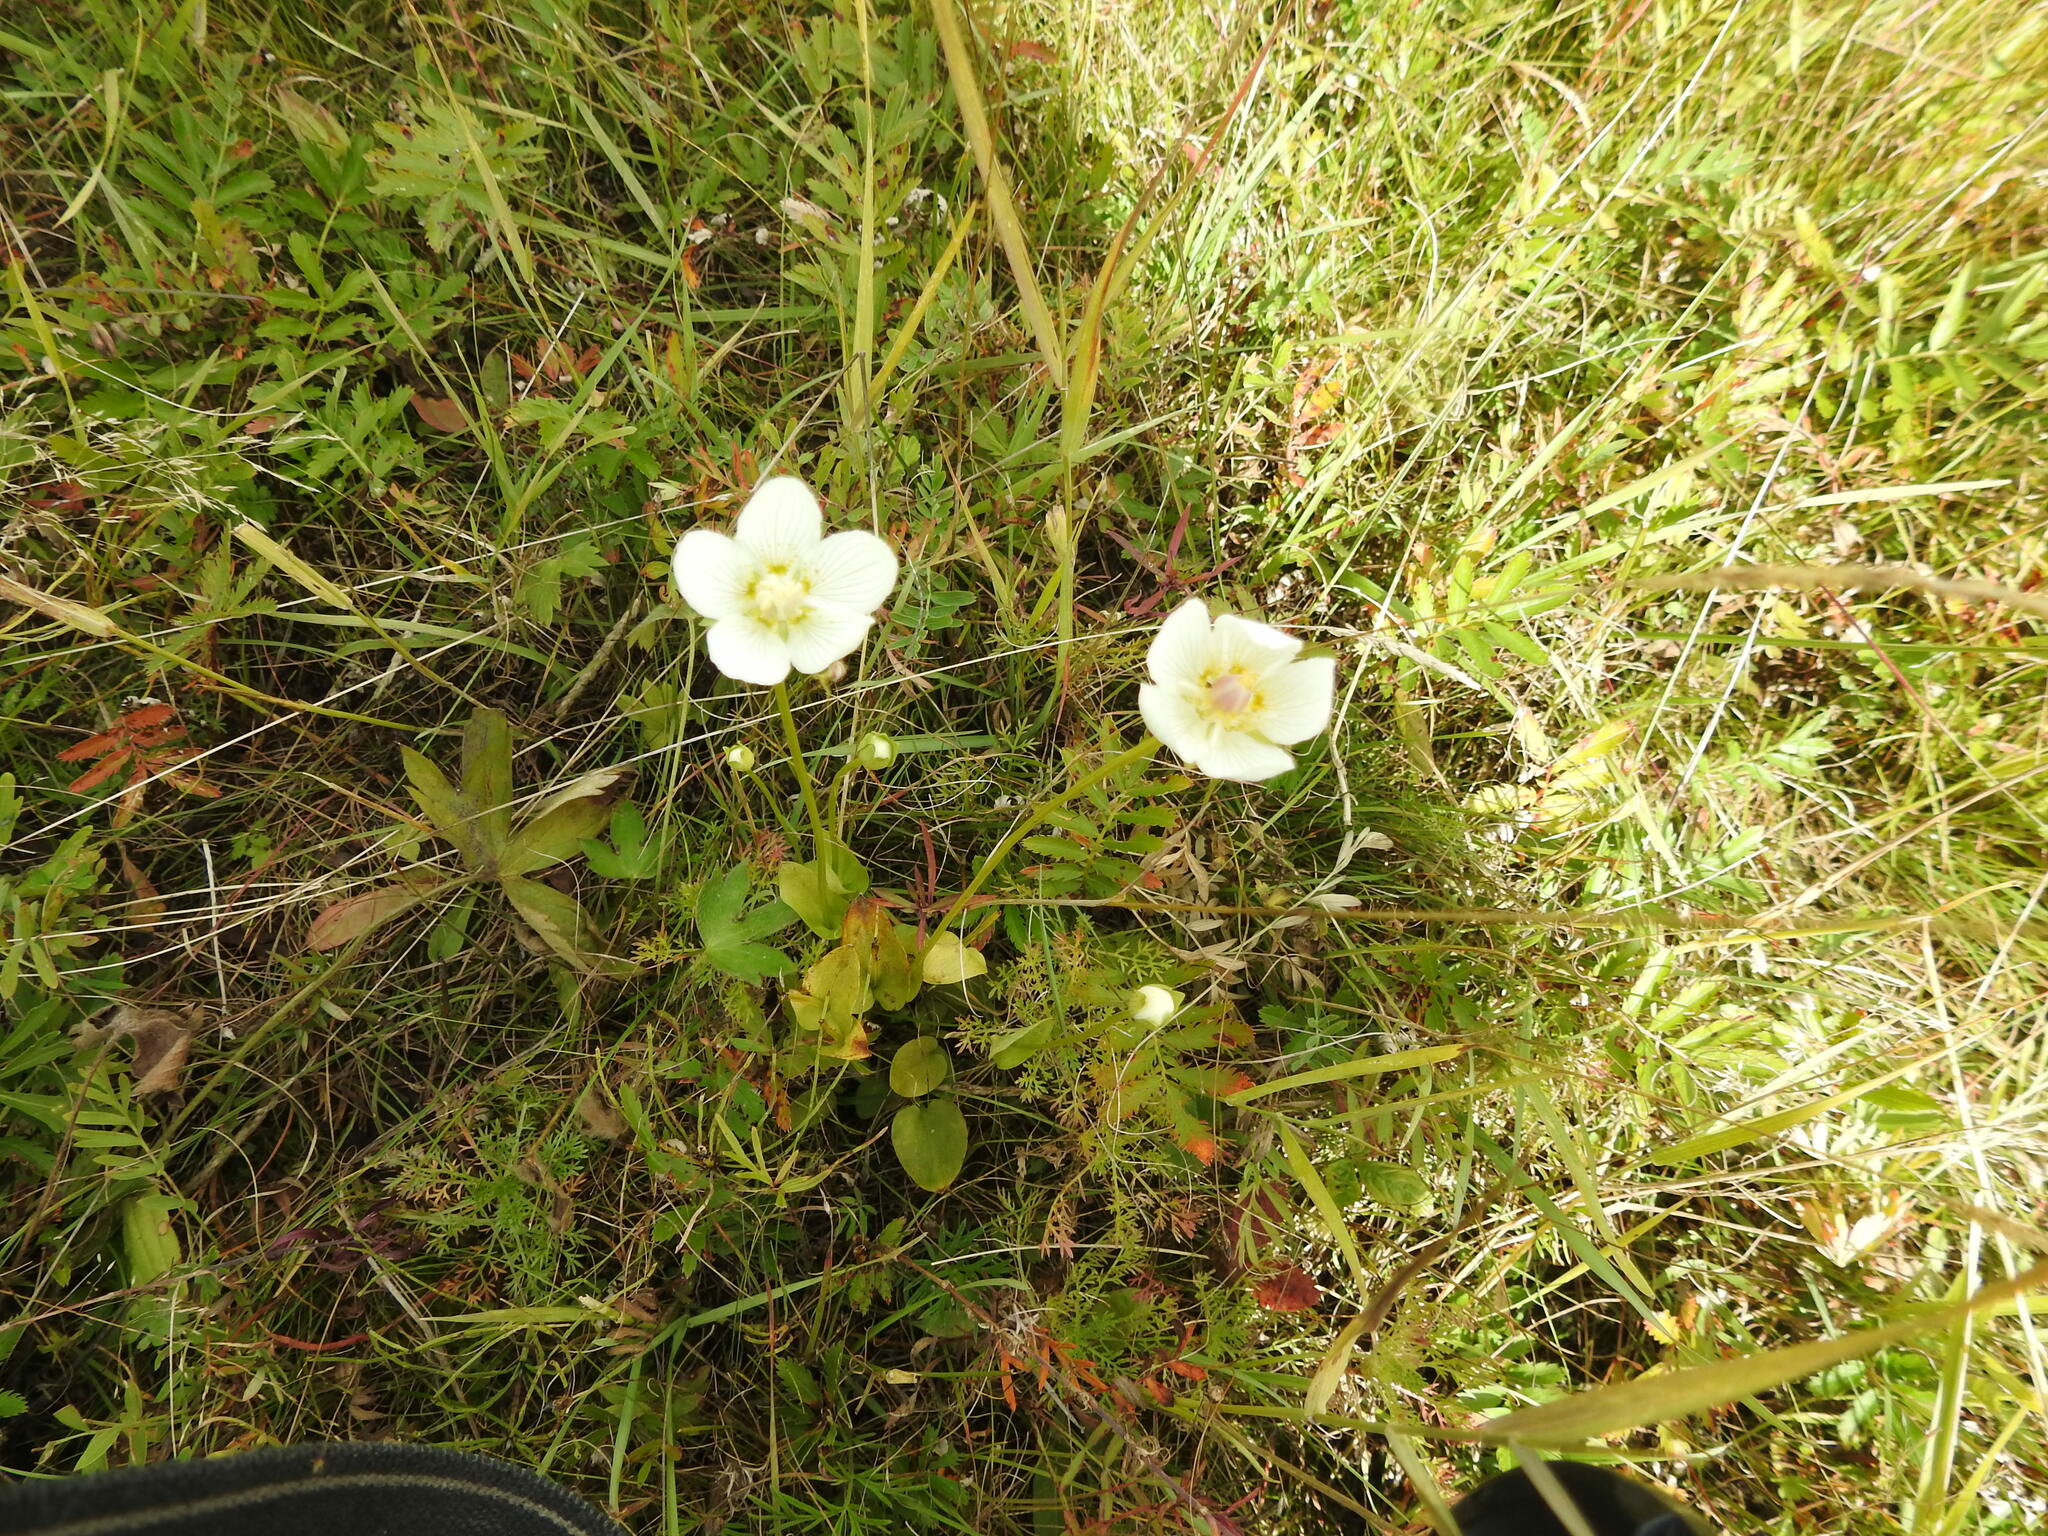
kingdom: Plantae
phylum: Tracheophyta
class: Magnoliopsida
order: Celastrales
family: Parnassiaceae
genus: Parnassia
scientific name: Parnassia palustris
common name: Grass-of-parnassus
